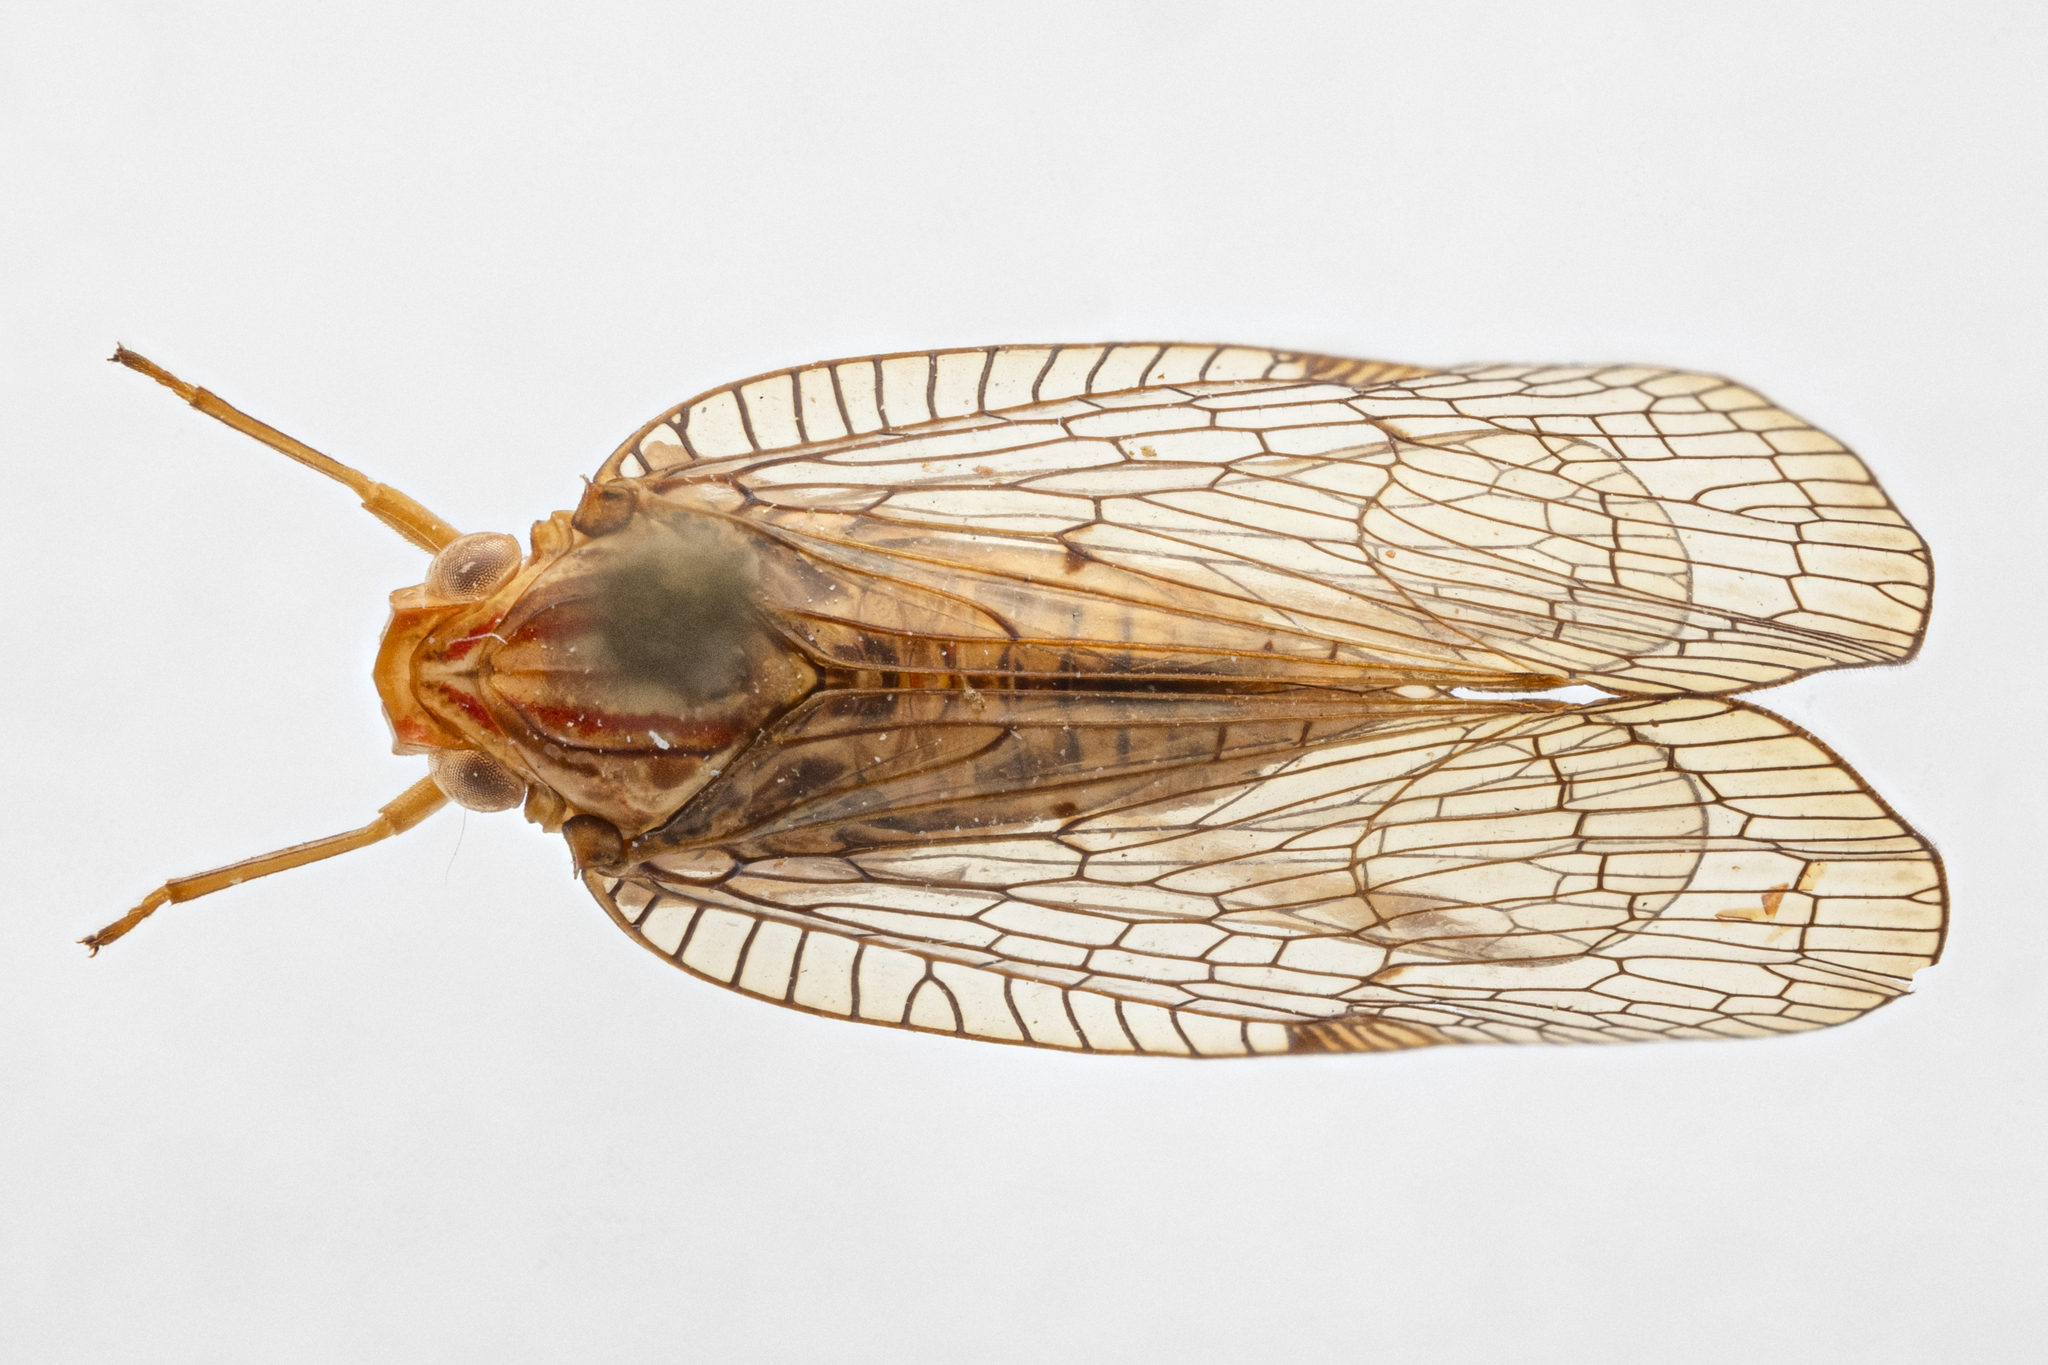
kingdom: Animalia
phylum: Arthropoda
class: Insecta
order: Hemiptera
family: Nogodinidae
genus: Neovarcia
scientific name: Neovarcia aequata
